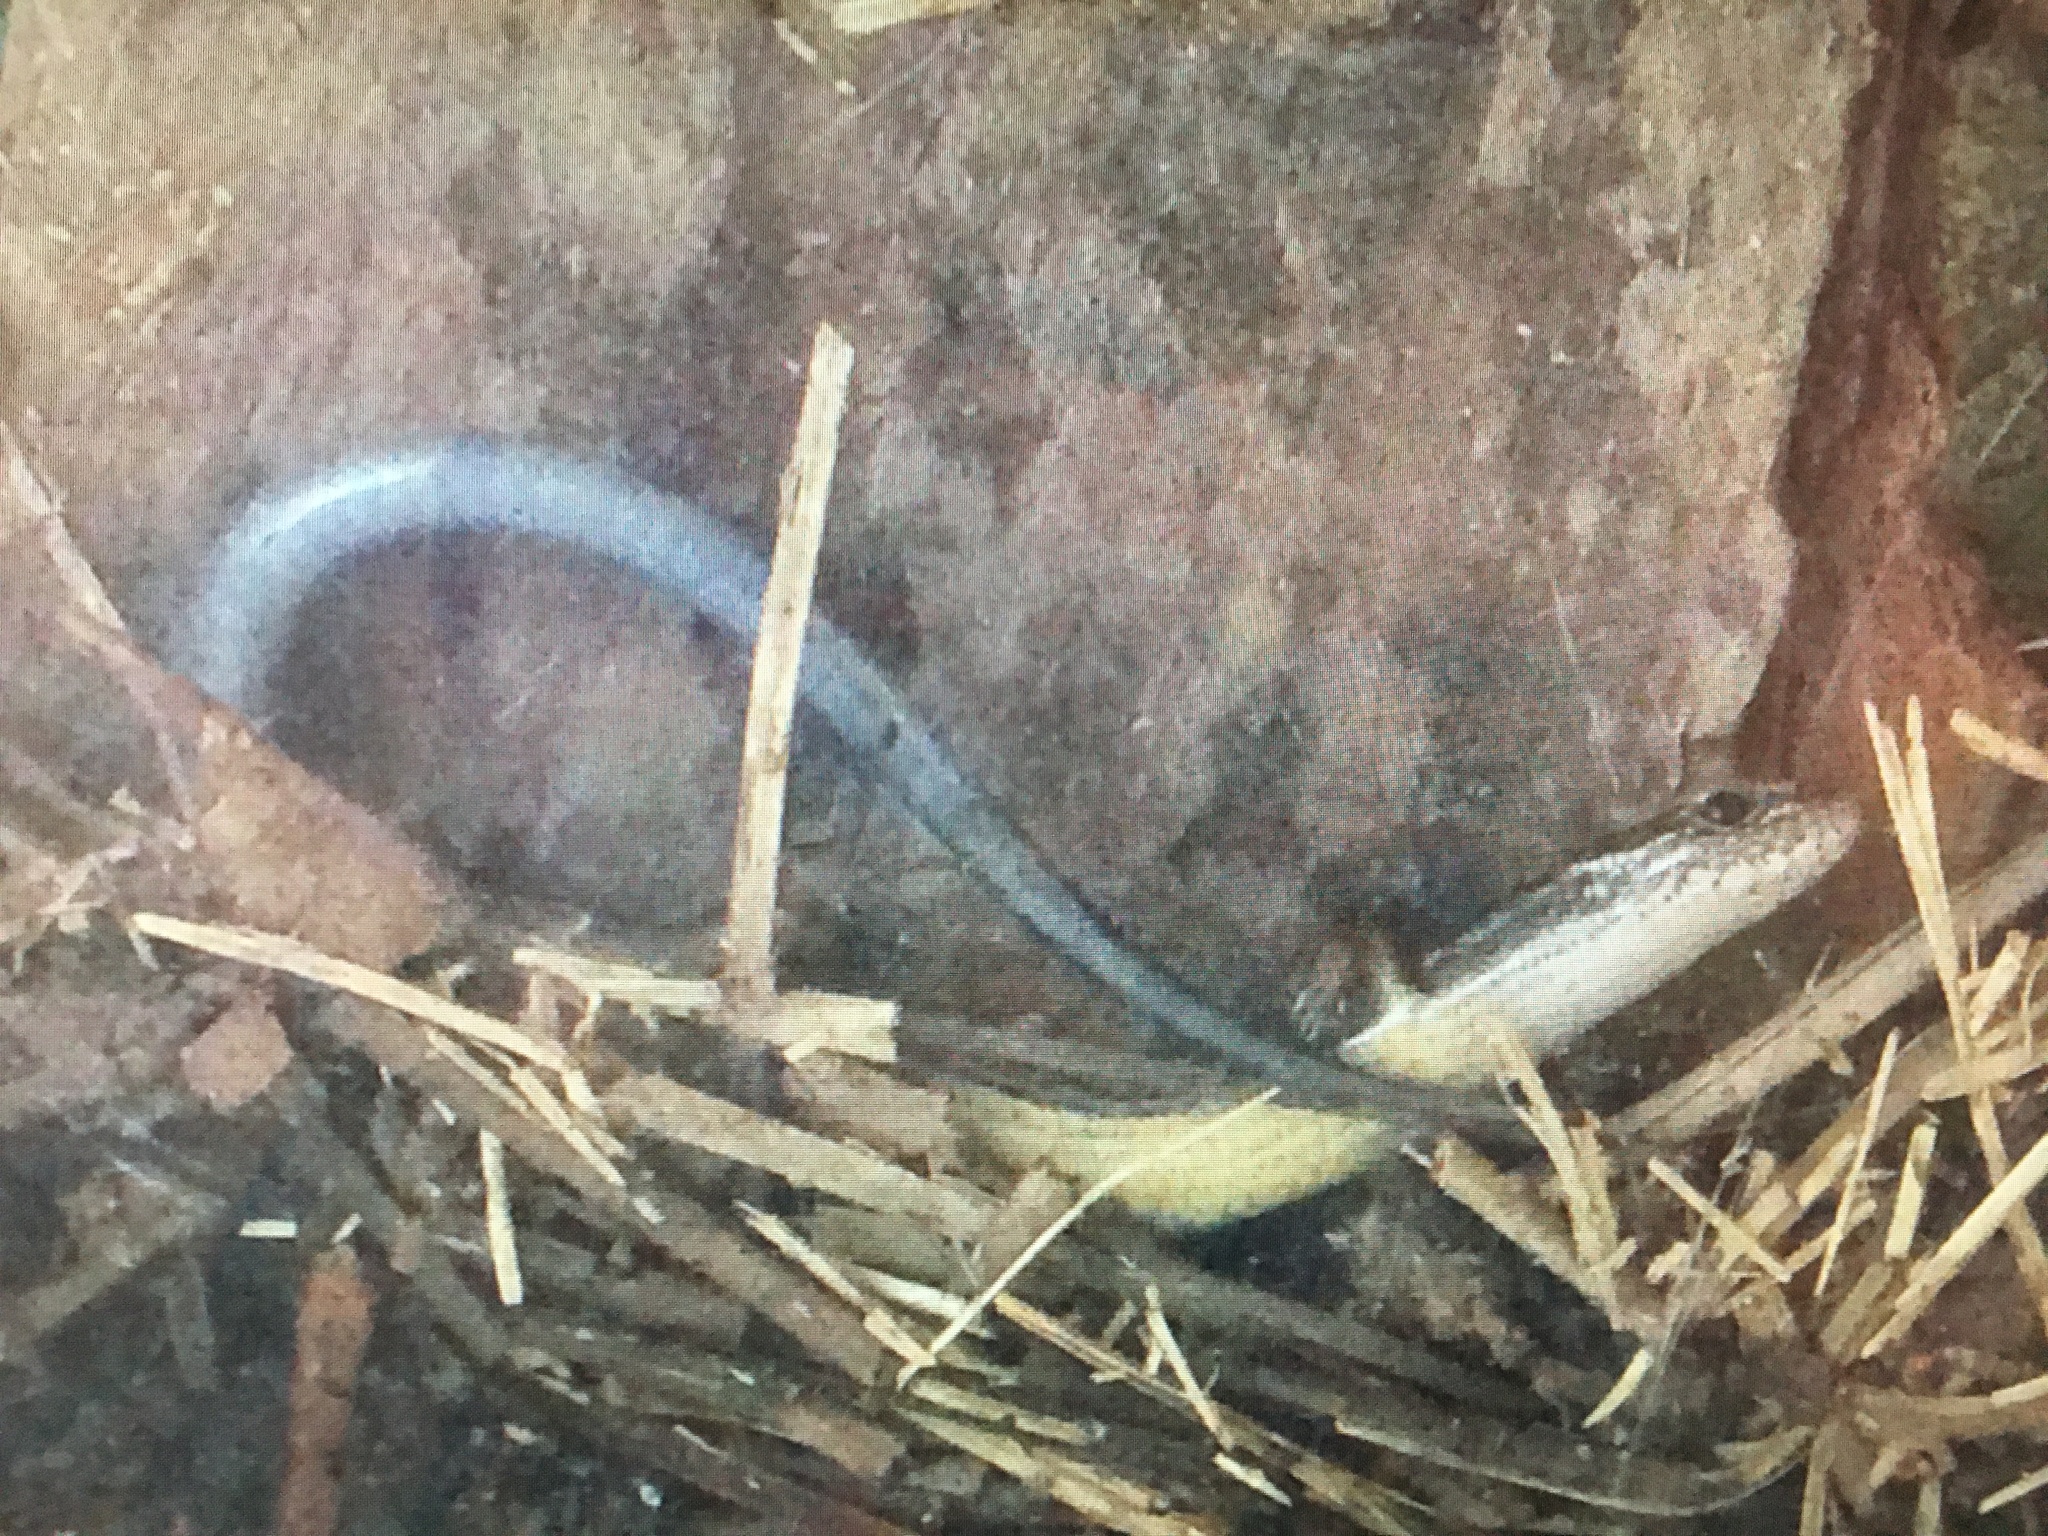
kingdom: Animalia
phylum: Chordata
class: Squamata
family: Scincidae
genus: Scincella
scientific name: Scincella lateralis
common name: Ground skink
